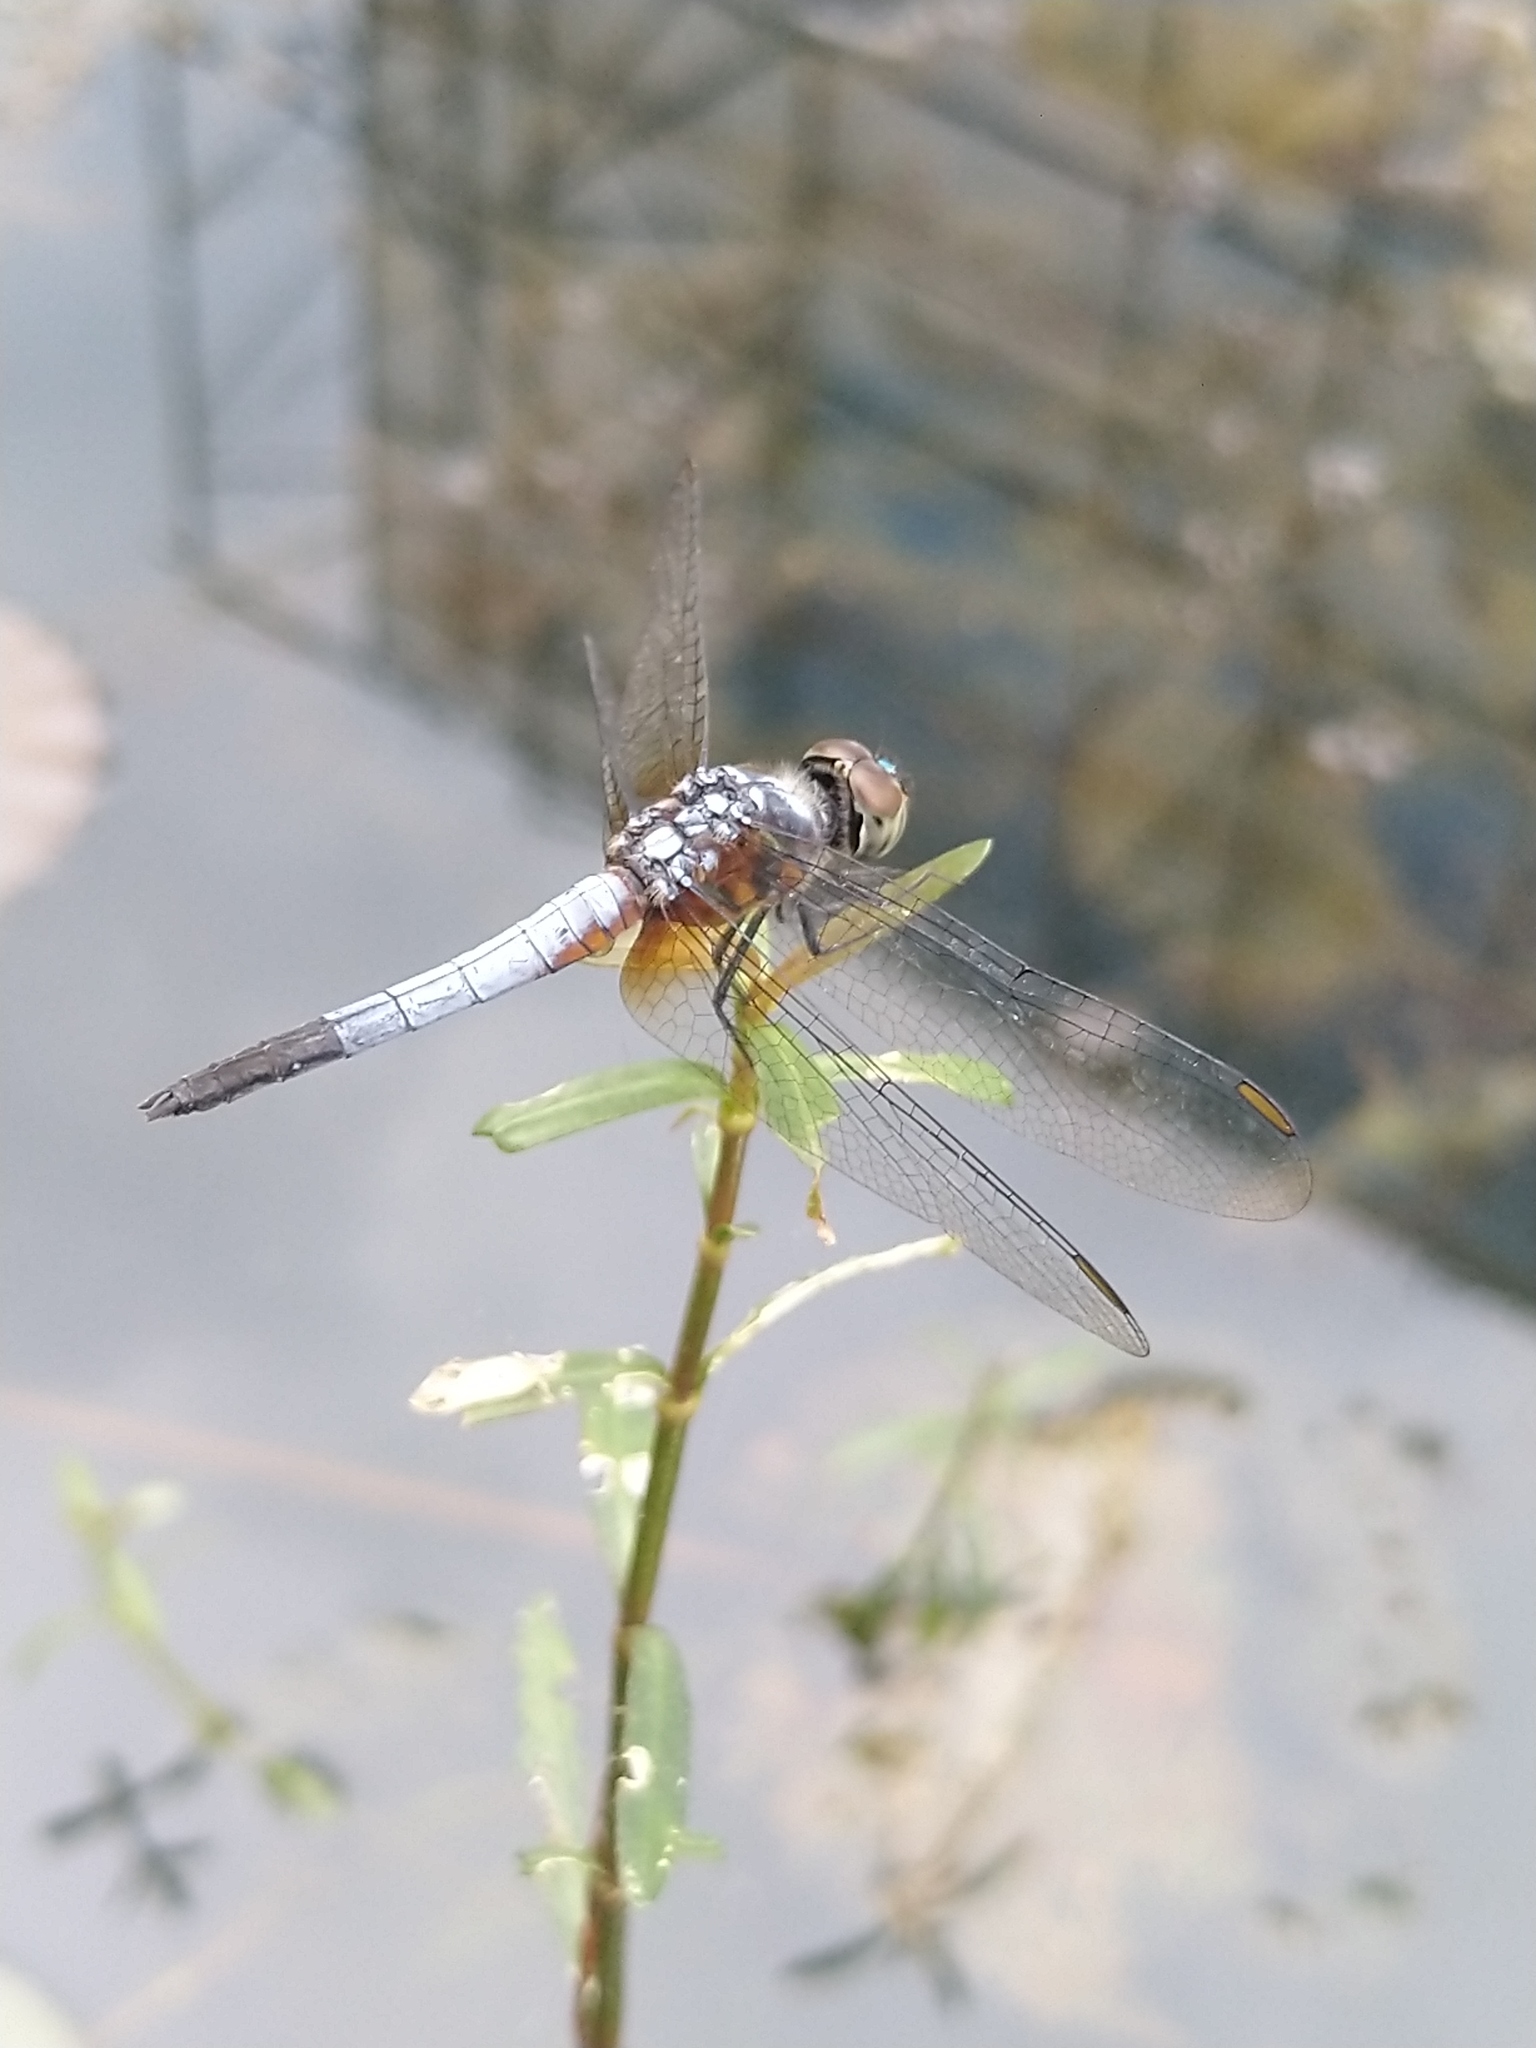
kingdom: Animalia
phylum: Arthropoda
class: Insecta
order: Odonata
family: Libellulidae
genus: Brachydiplax
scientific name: Brachydiplax chalybea
